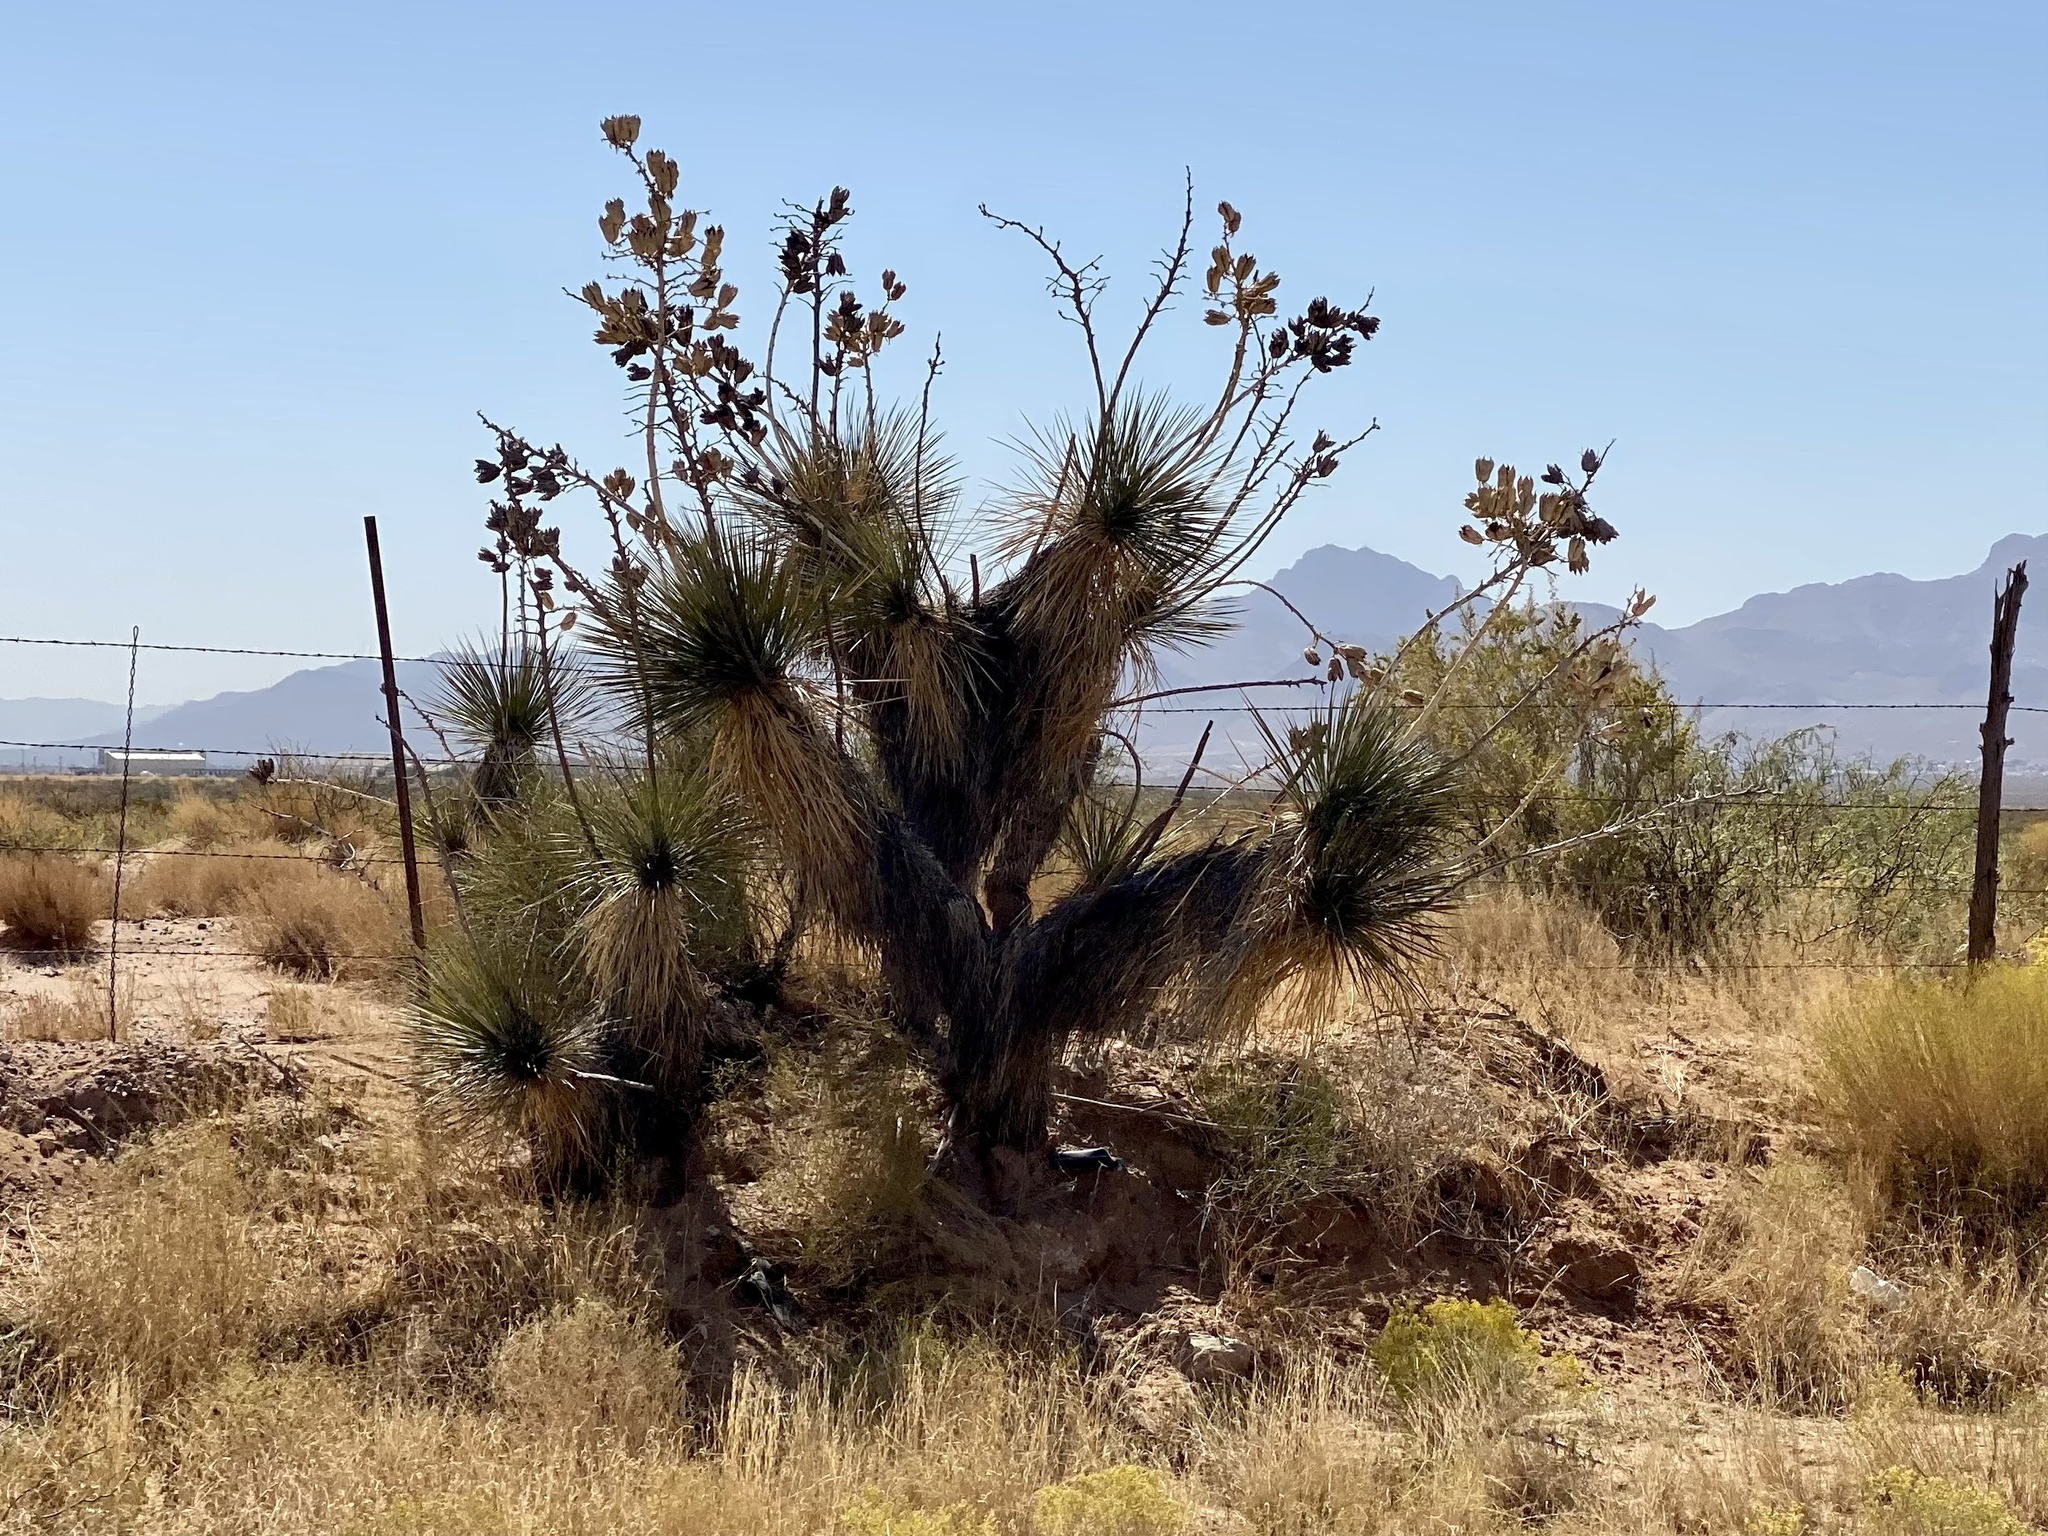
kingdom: Plantae
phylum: Tracheophyta
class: Liliopsida
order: Asparagales
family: Asparagaceae
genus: Yucca
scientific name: Yucca elata
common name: Palmella
